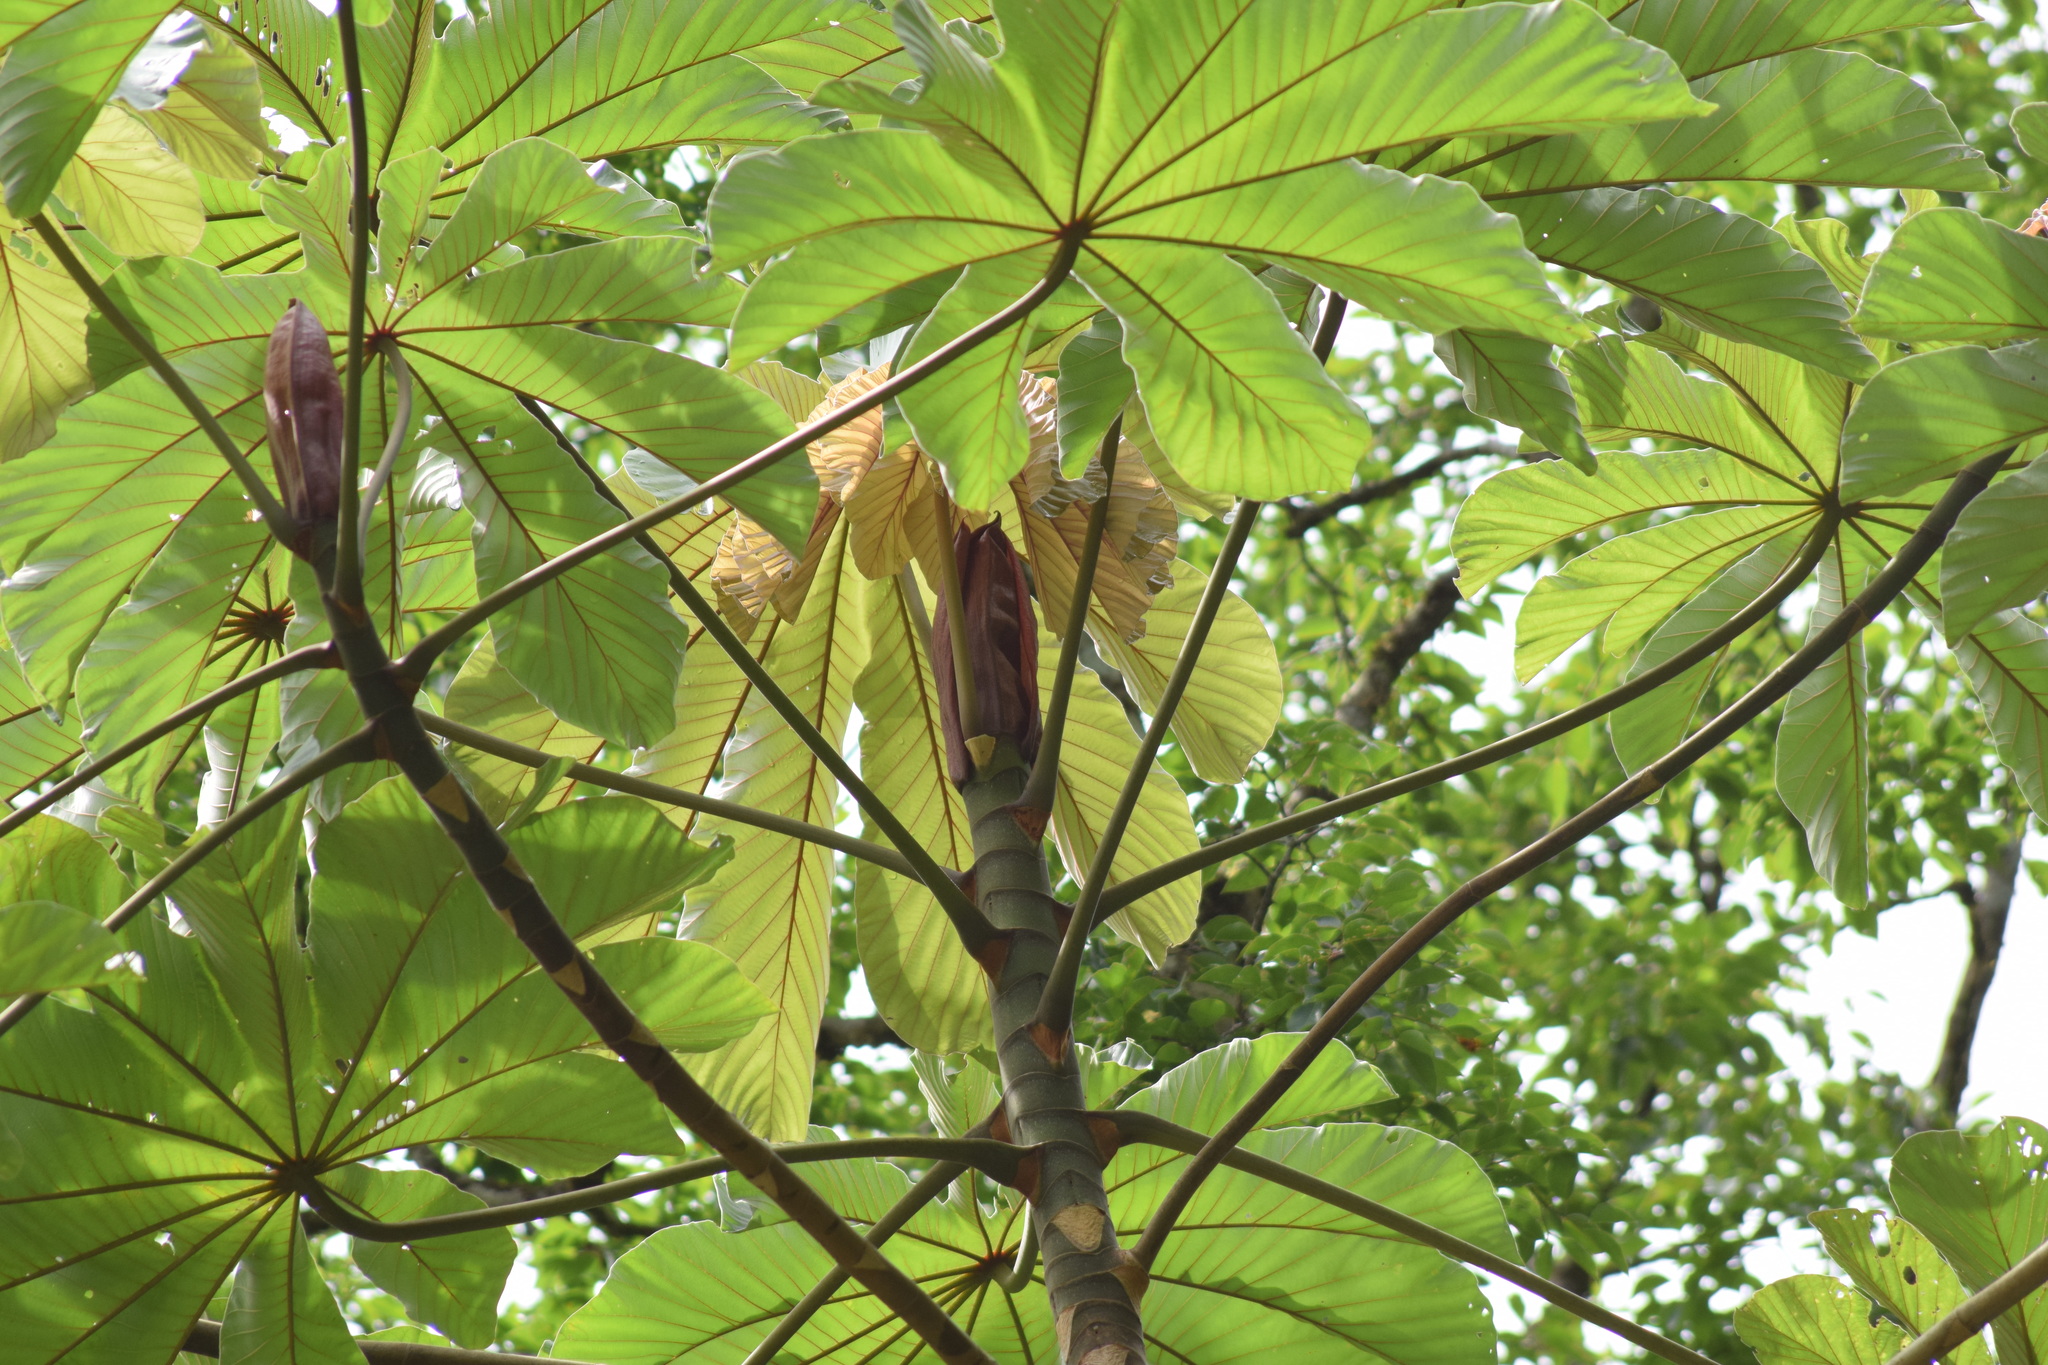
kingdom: Plantae
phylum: Tracheophyta
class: Magnoliopsida
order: Rosales
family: Urticaceae
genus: Cecropia
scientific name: Cecropia glaziovii
